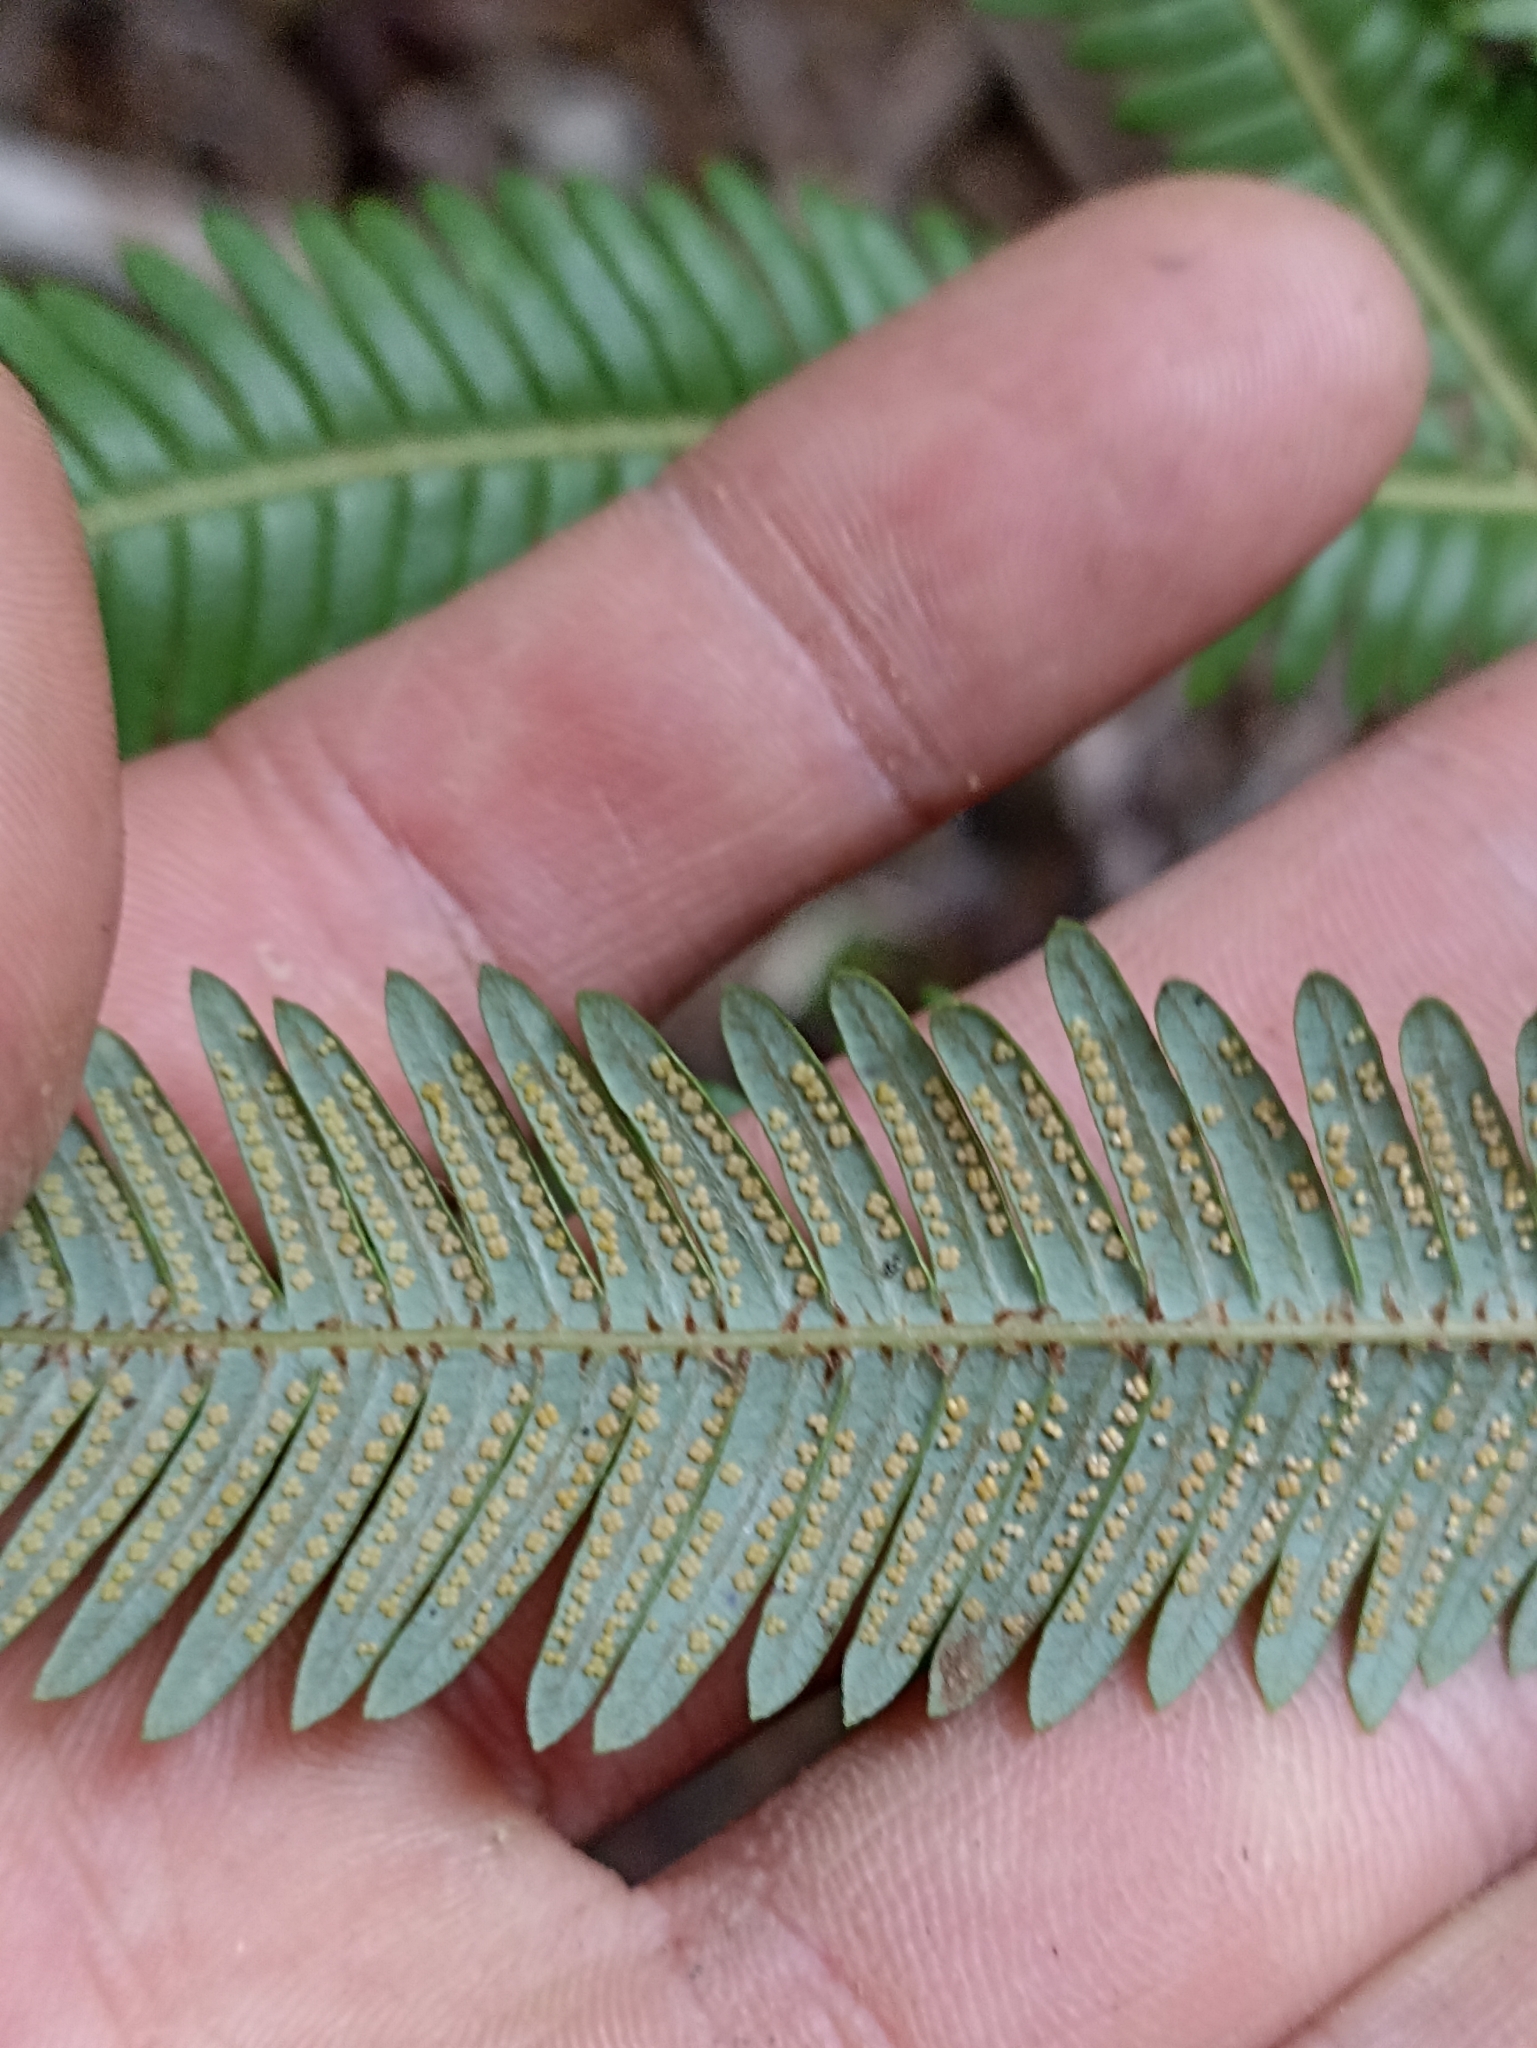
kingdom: Plantae
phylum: Tracheophyta
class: Polypodiopsida
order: Gleicheniales
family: Gleicheniaceae
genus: Sticherus
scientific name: Sticherus cunninghamii
